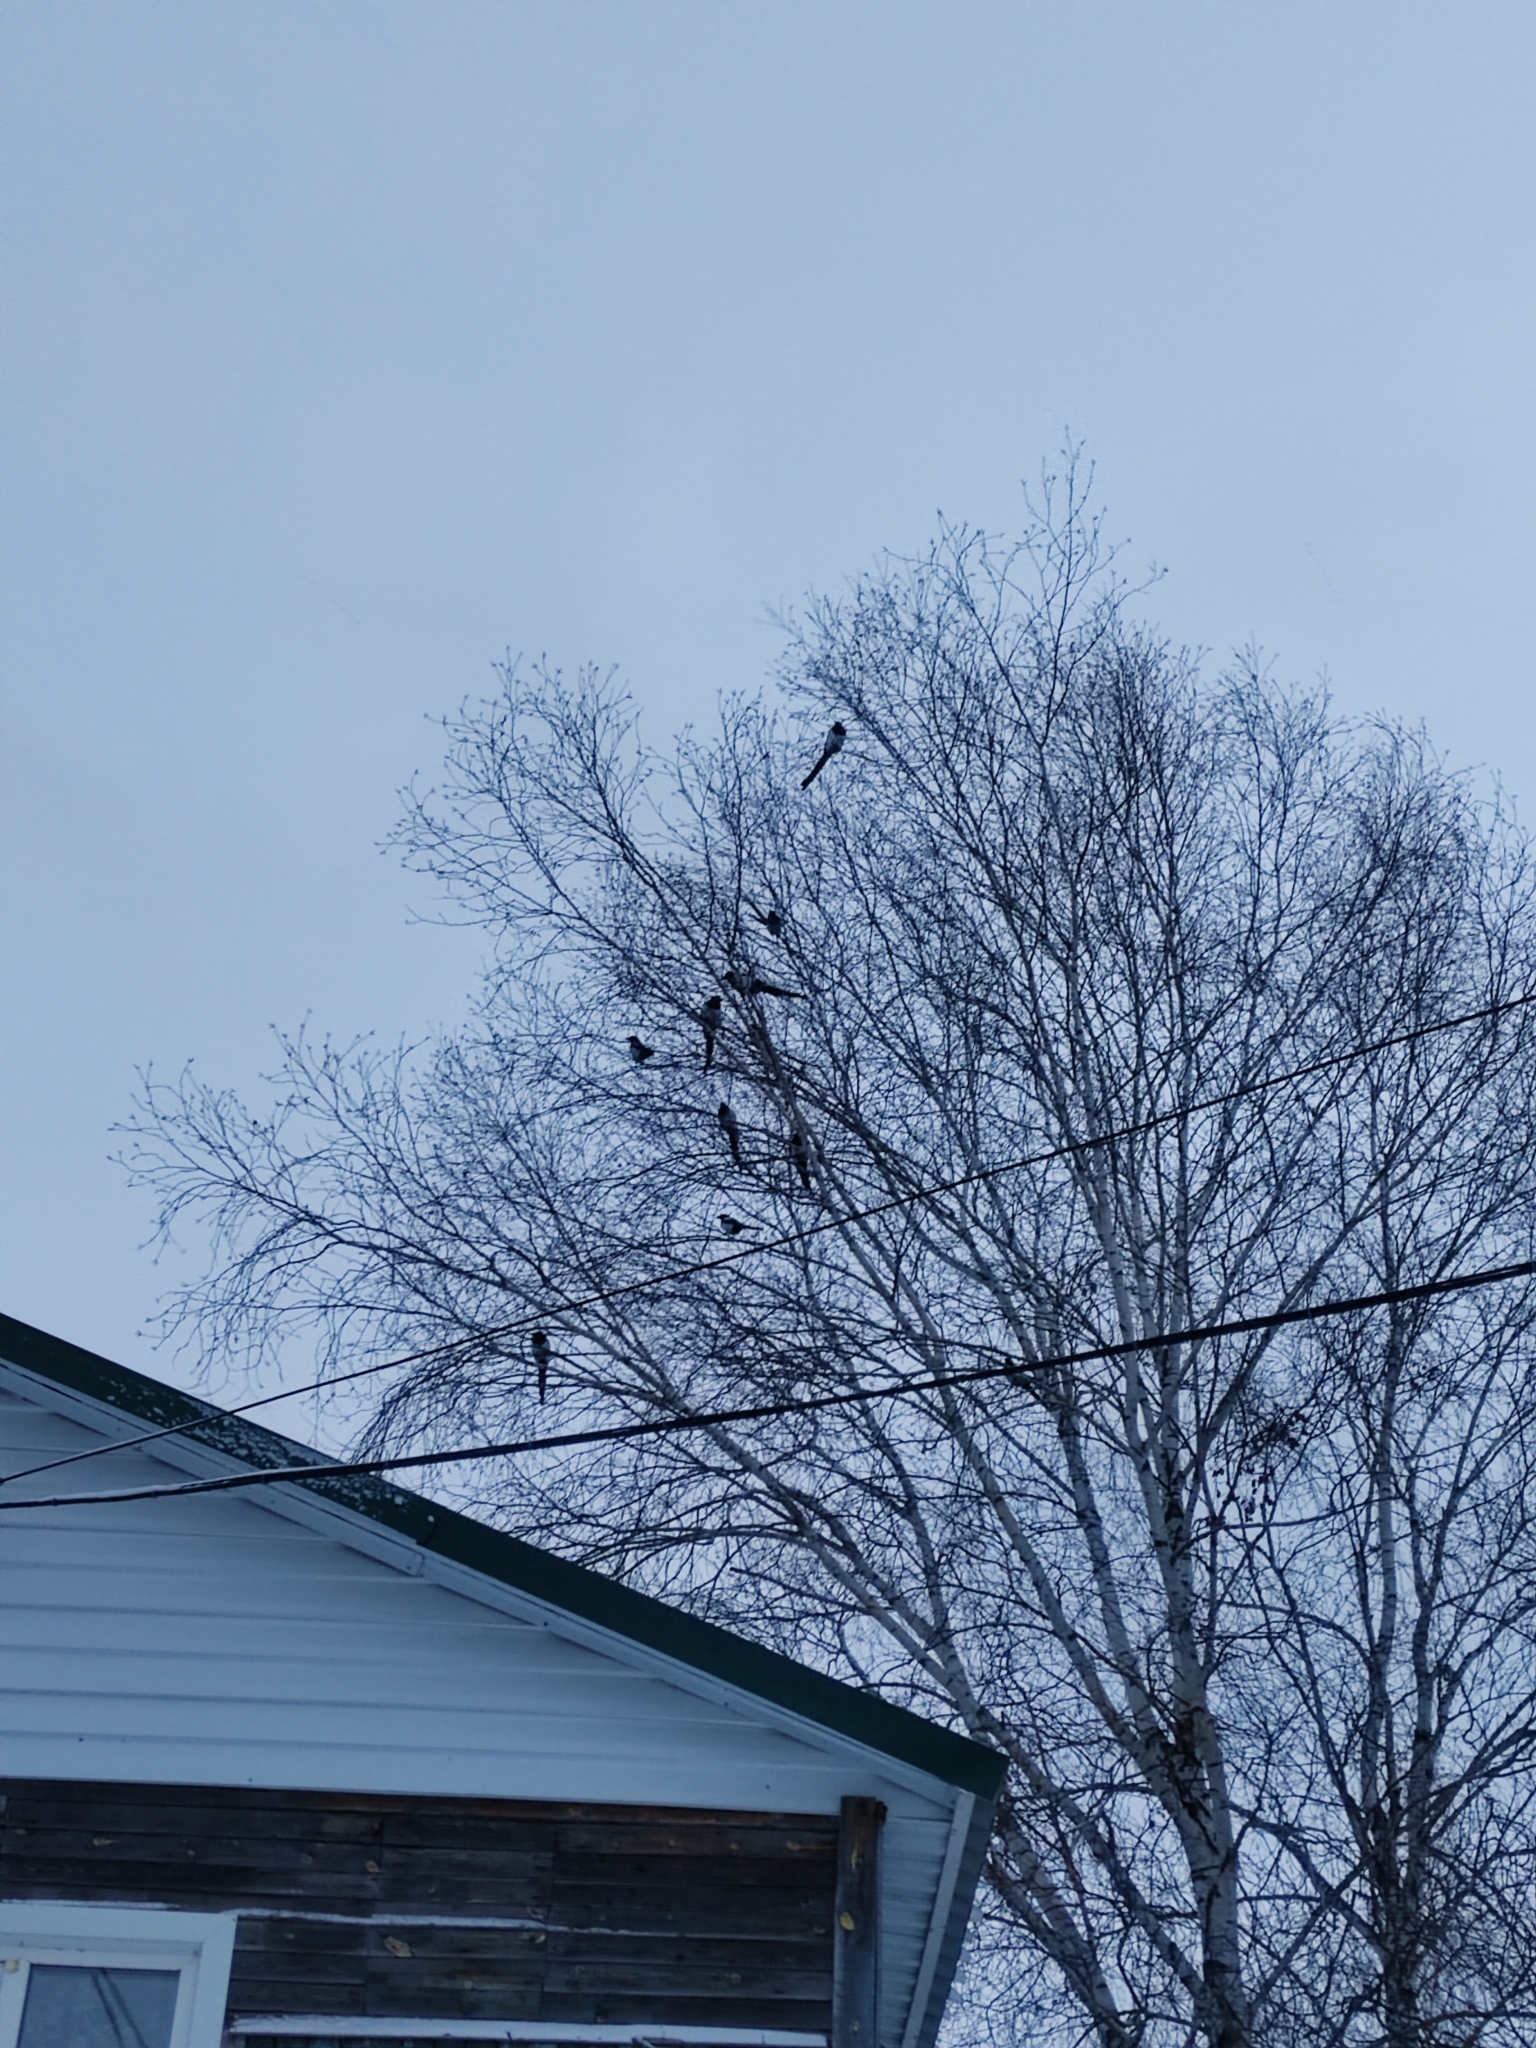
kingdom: Animalia
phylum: Chordata
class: Aves
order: Passeriformes
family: Corvidae
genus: Pica
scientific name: Pica pica
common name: Eurasian magpie
